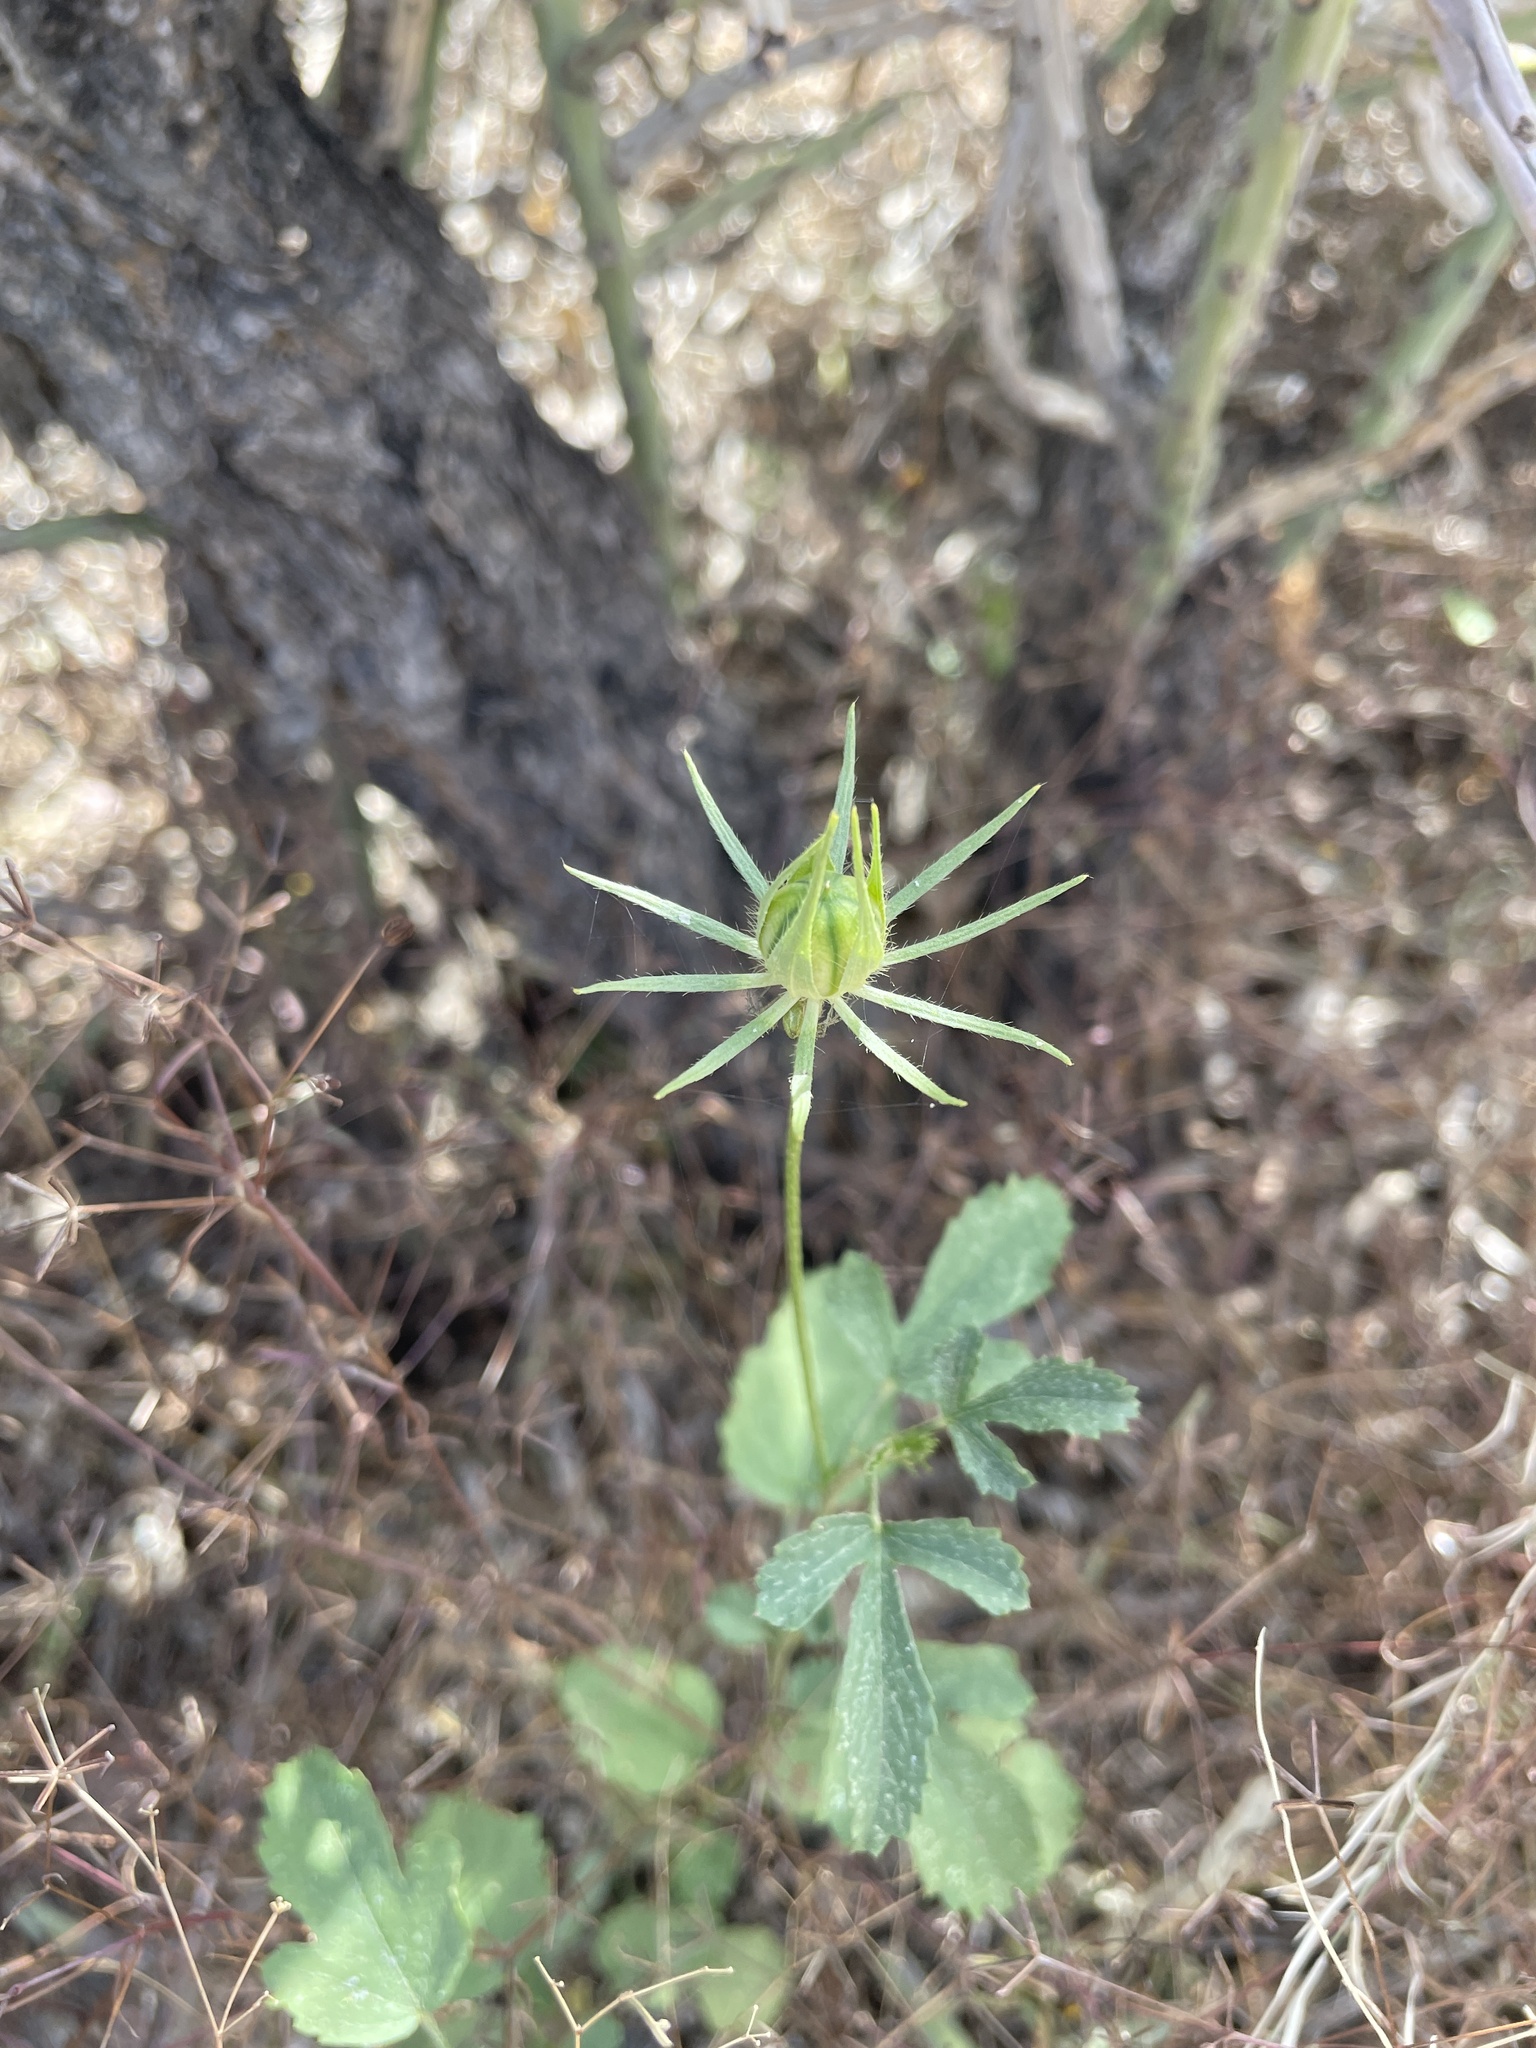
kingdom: Plantae
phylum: Tracheophyta
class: Magnoliopsida
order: Malvales
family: Malvaceae
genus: Hibiscus
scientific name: Hibiscus biseptus
